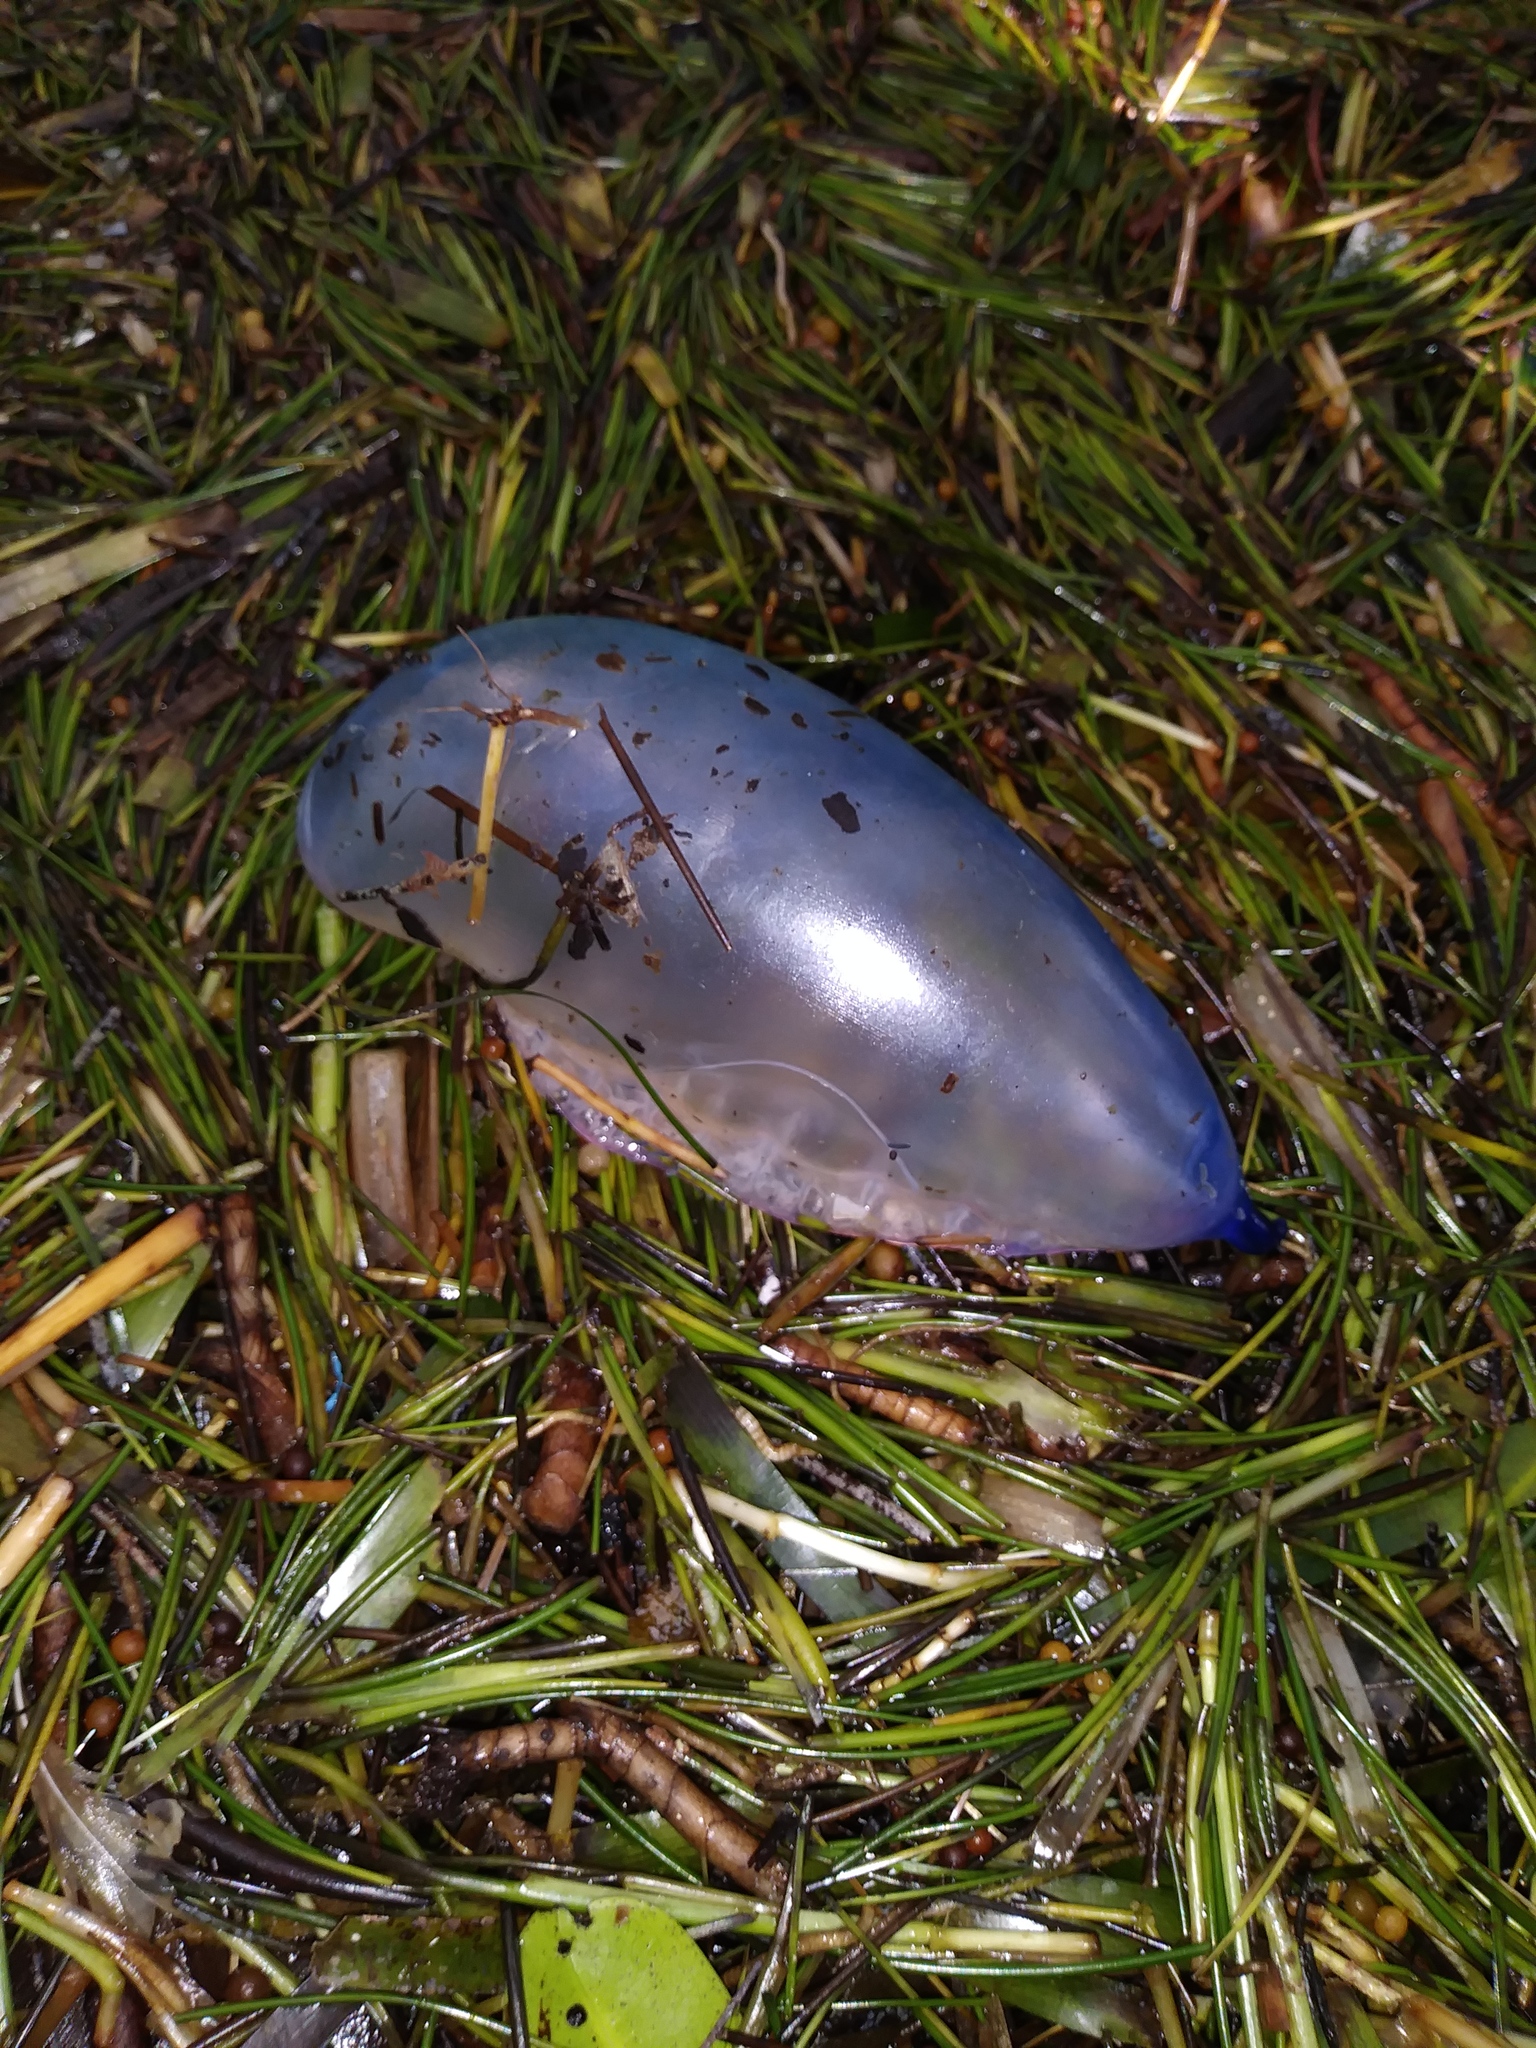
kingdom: Animalia
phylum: Cnidaria
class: Hydrozoa
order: Siphonophorae
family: Physaliidae
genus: Physalia
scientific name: Physalia physalis
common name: Portuguese man-of-war
